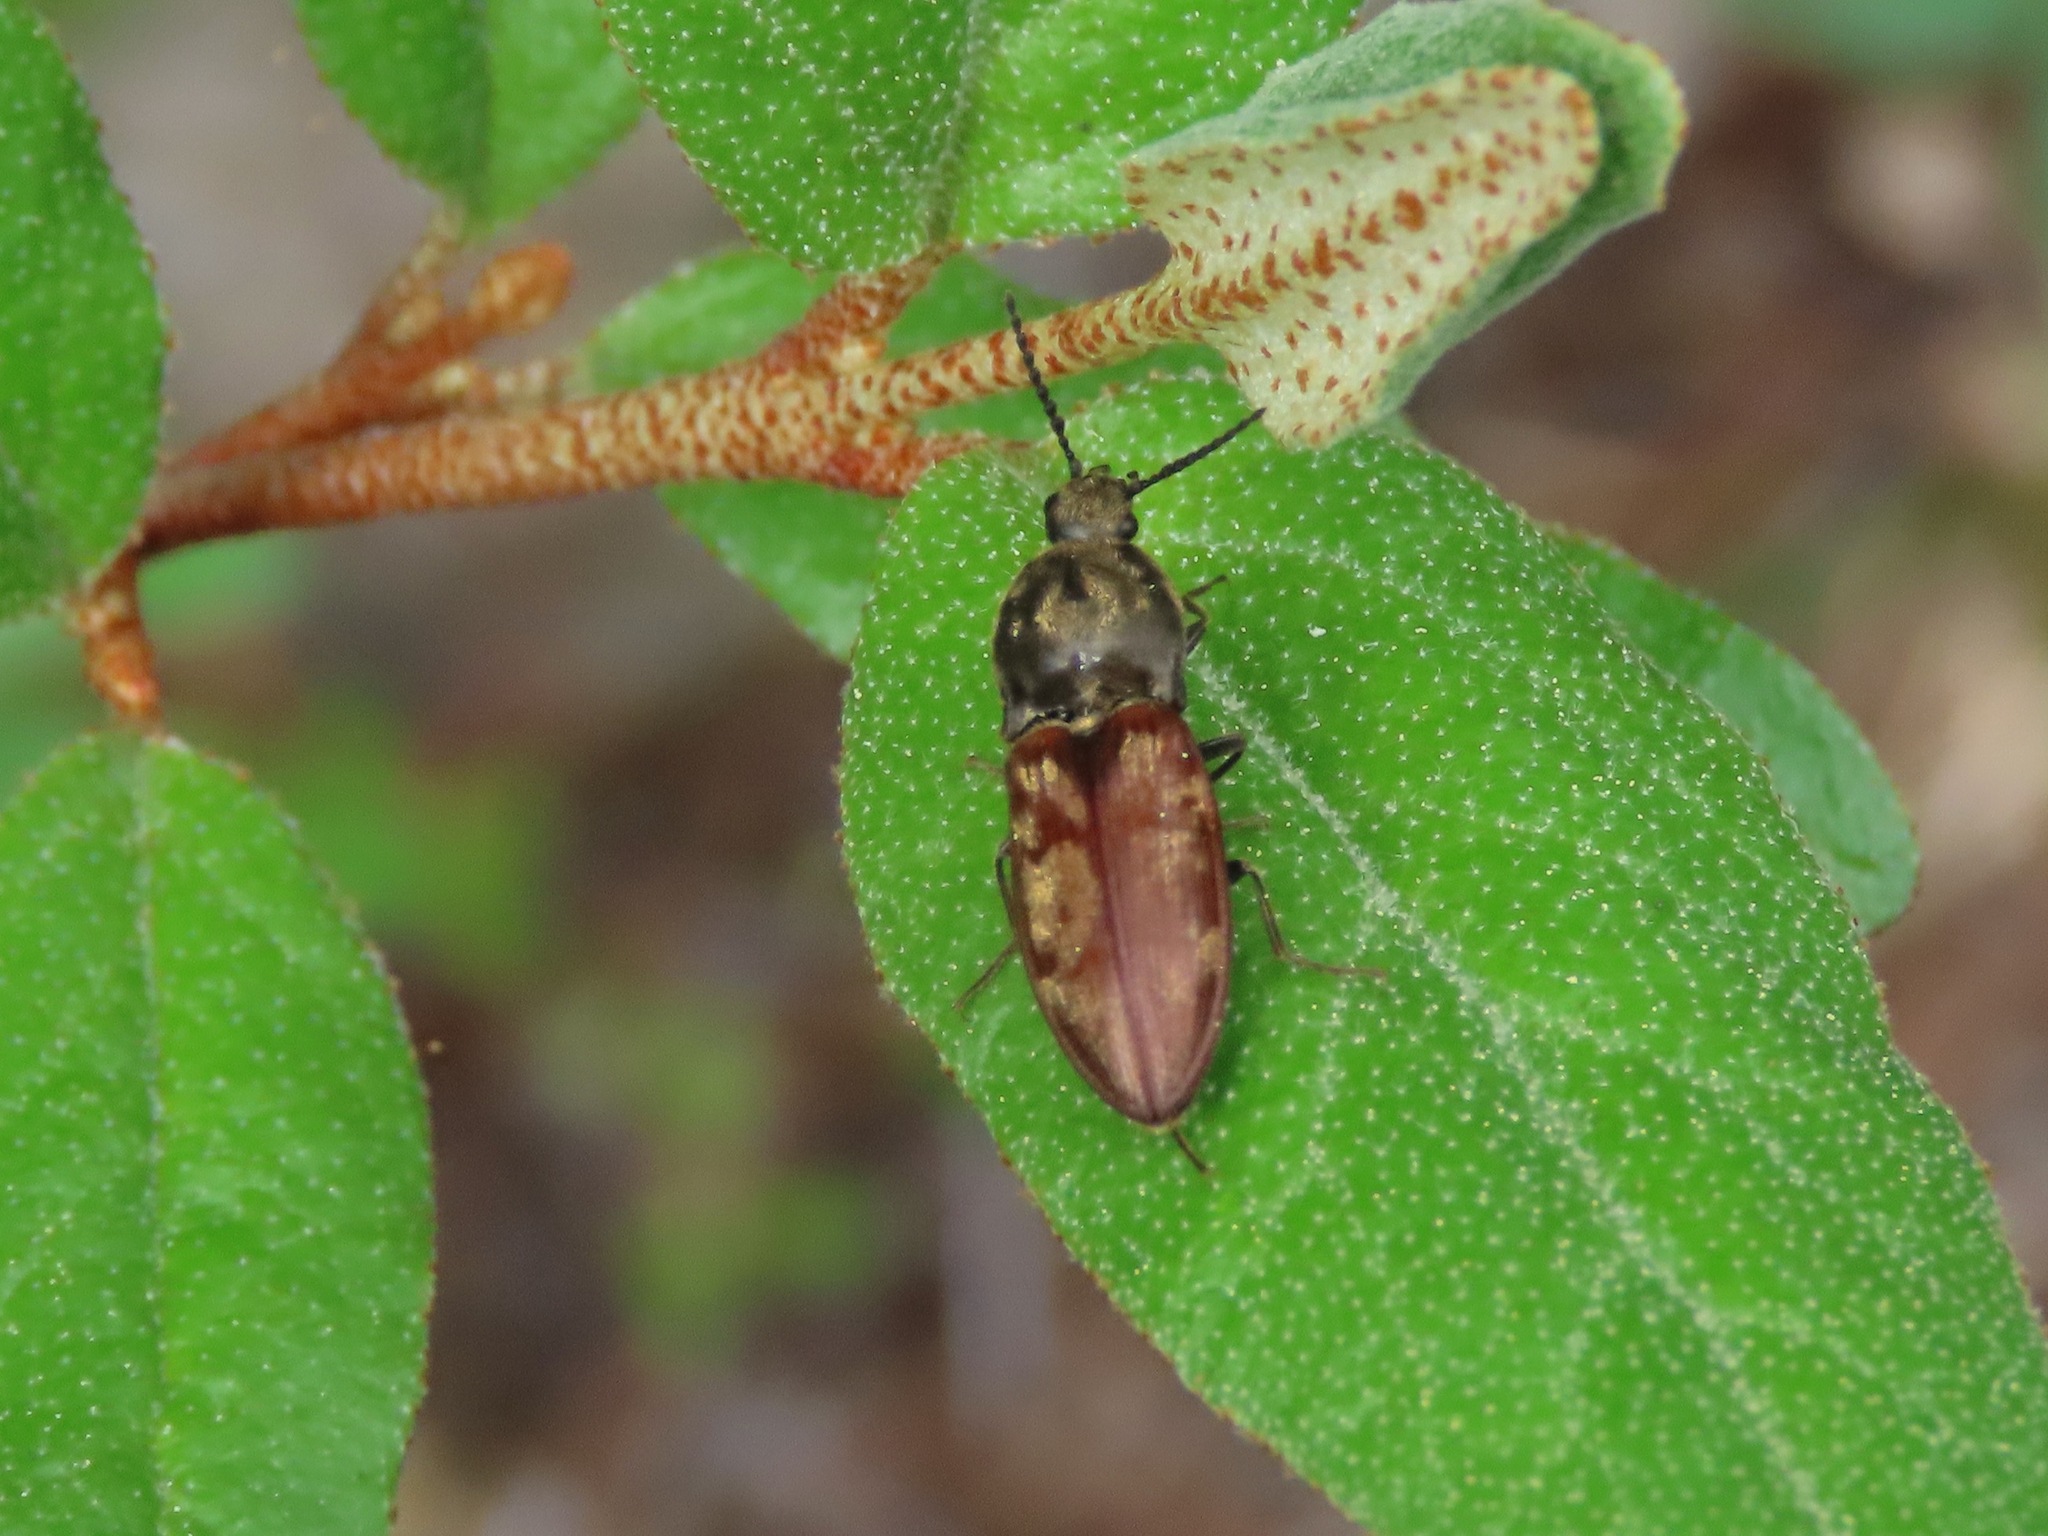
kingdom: Animalia
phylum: Arthropoda
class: Insecta
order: Coleoptera
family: Elateridae
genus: Prosternon
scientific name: Prosternon bombycinum
